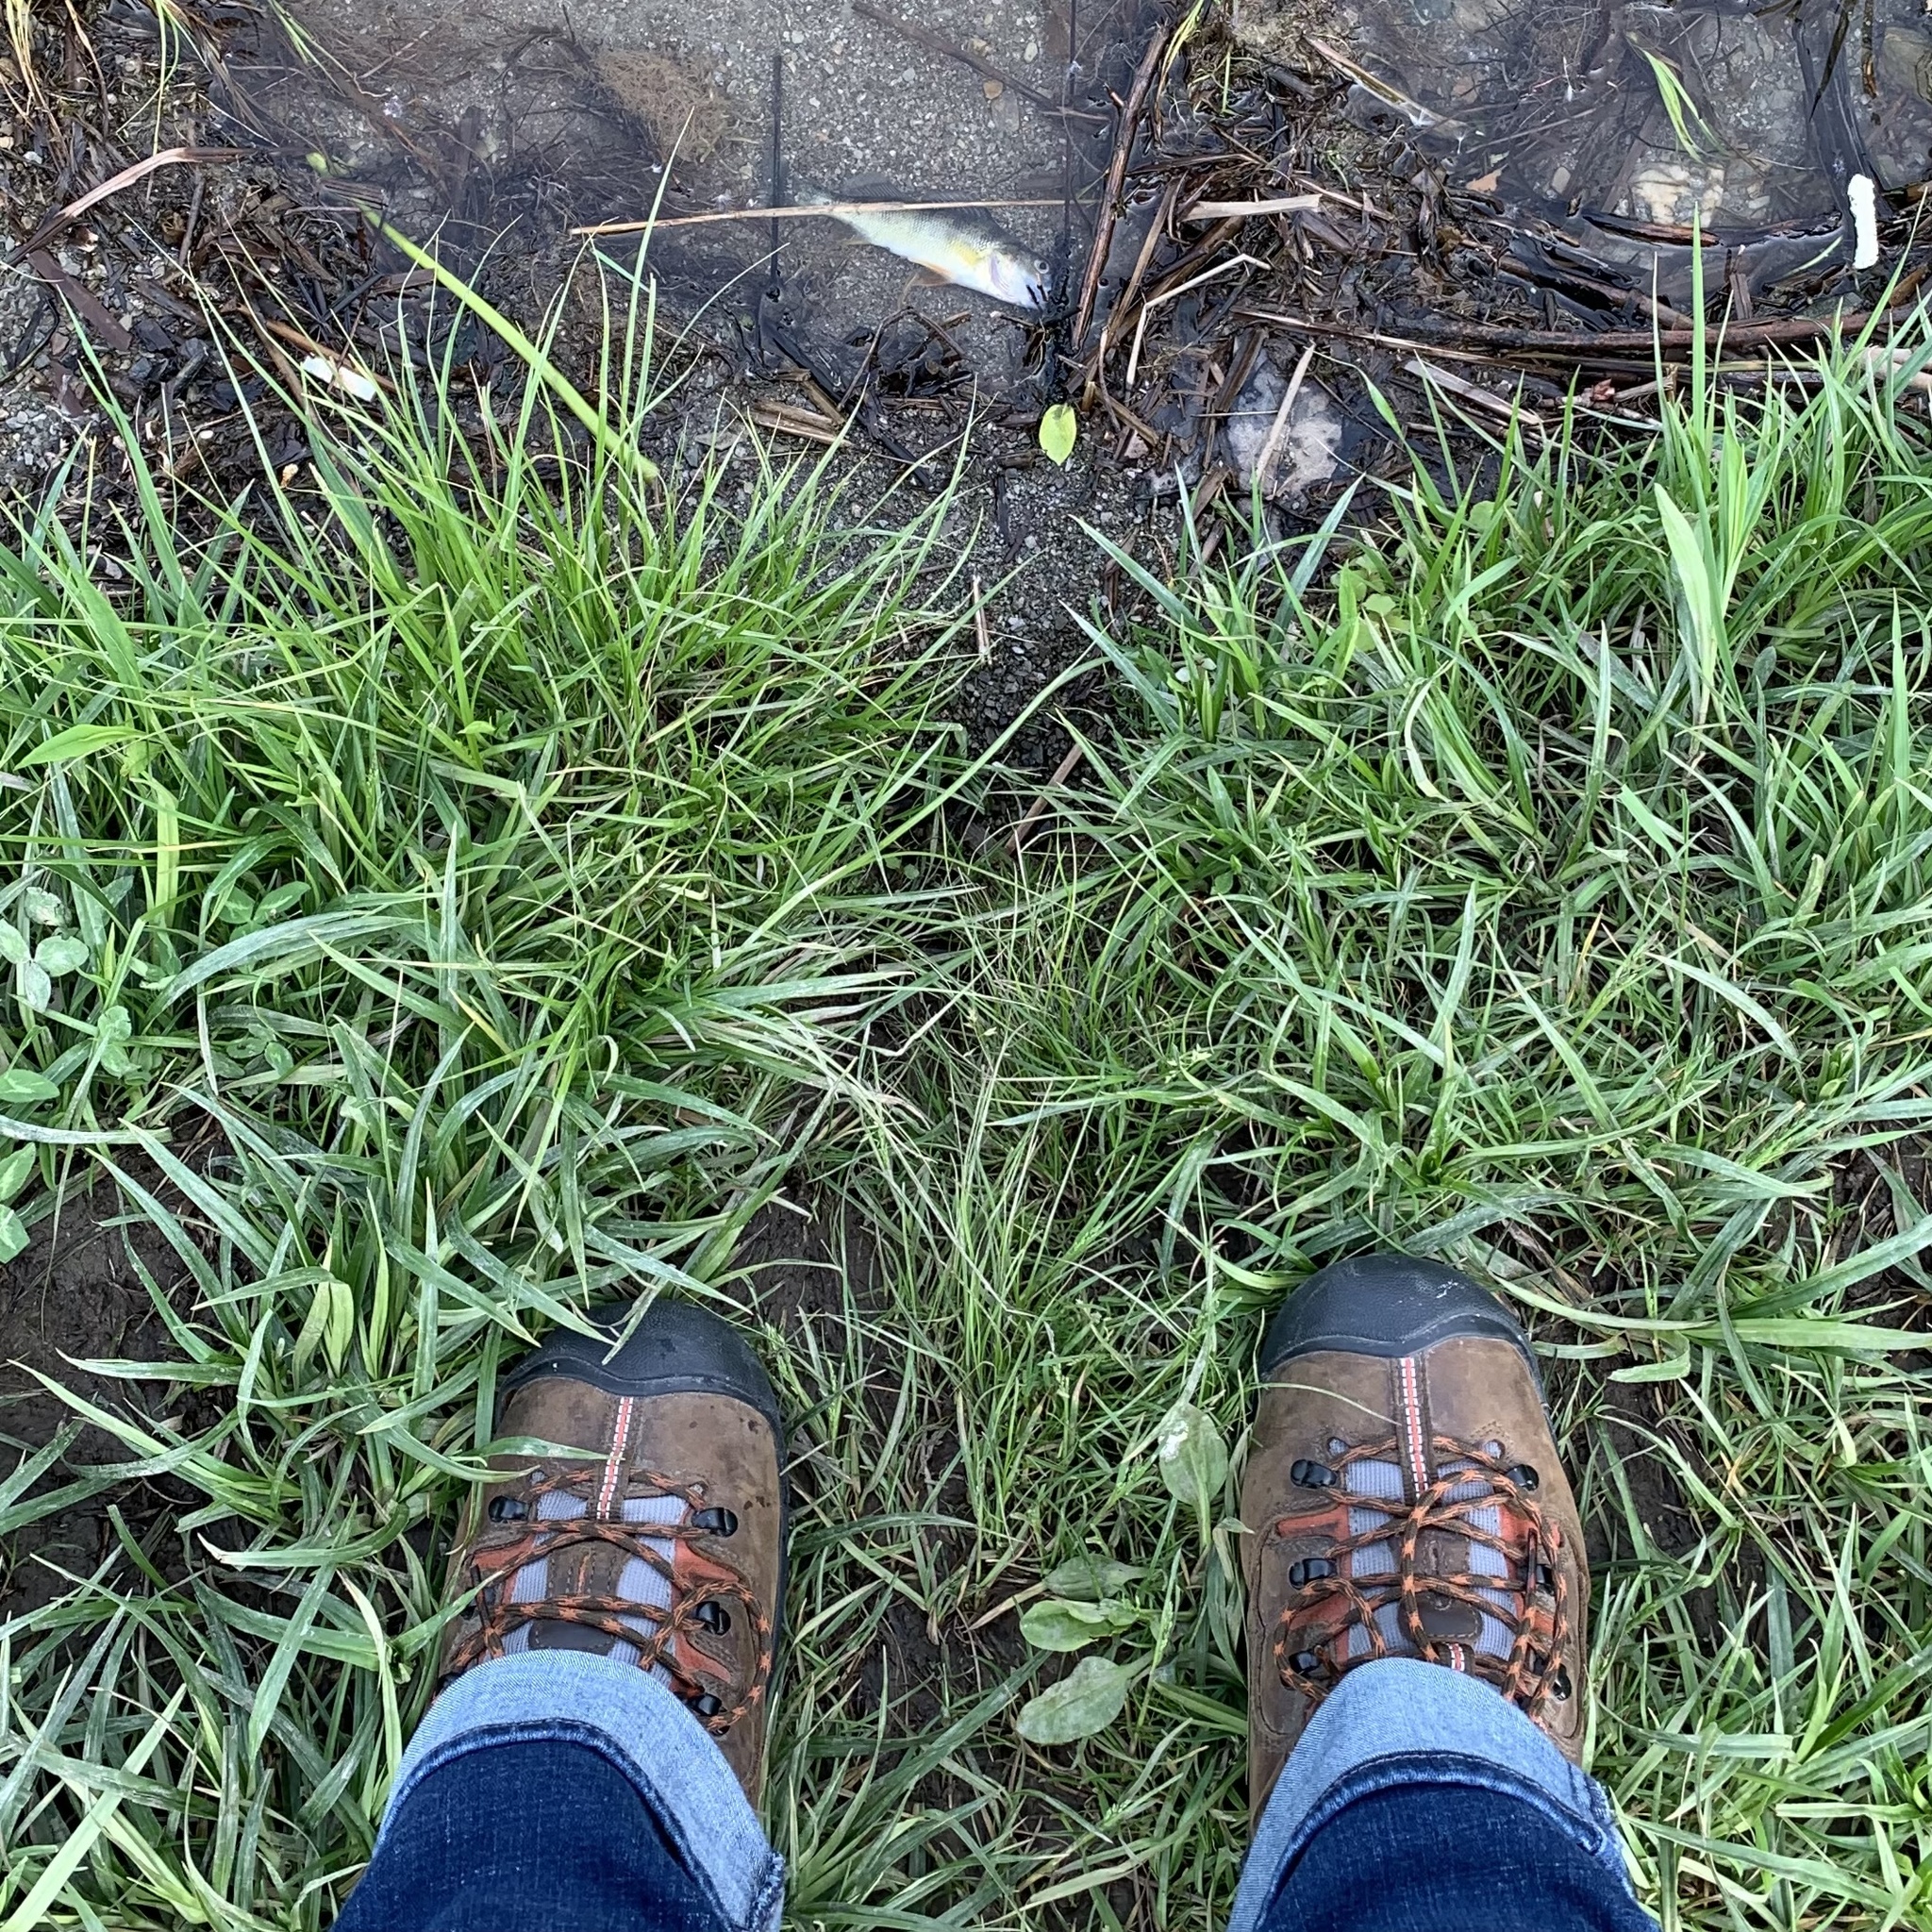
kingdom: Animalia
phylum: Chordata
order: Perciformes
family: Percidae
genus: Perca
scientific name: Perca flavescens
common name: Yellow perch
